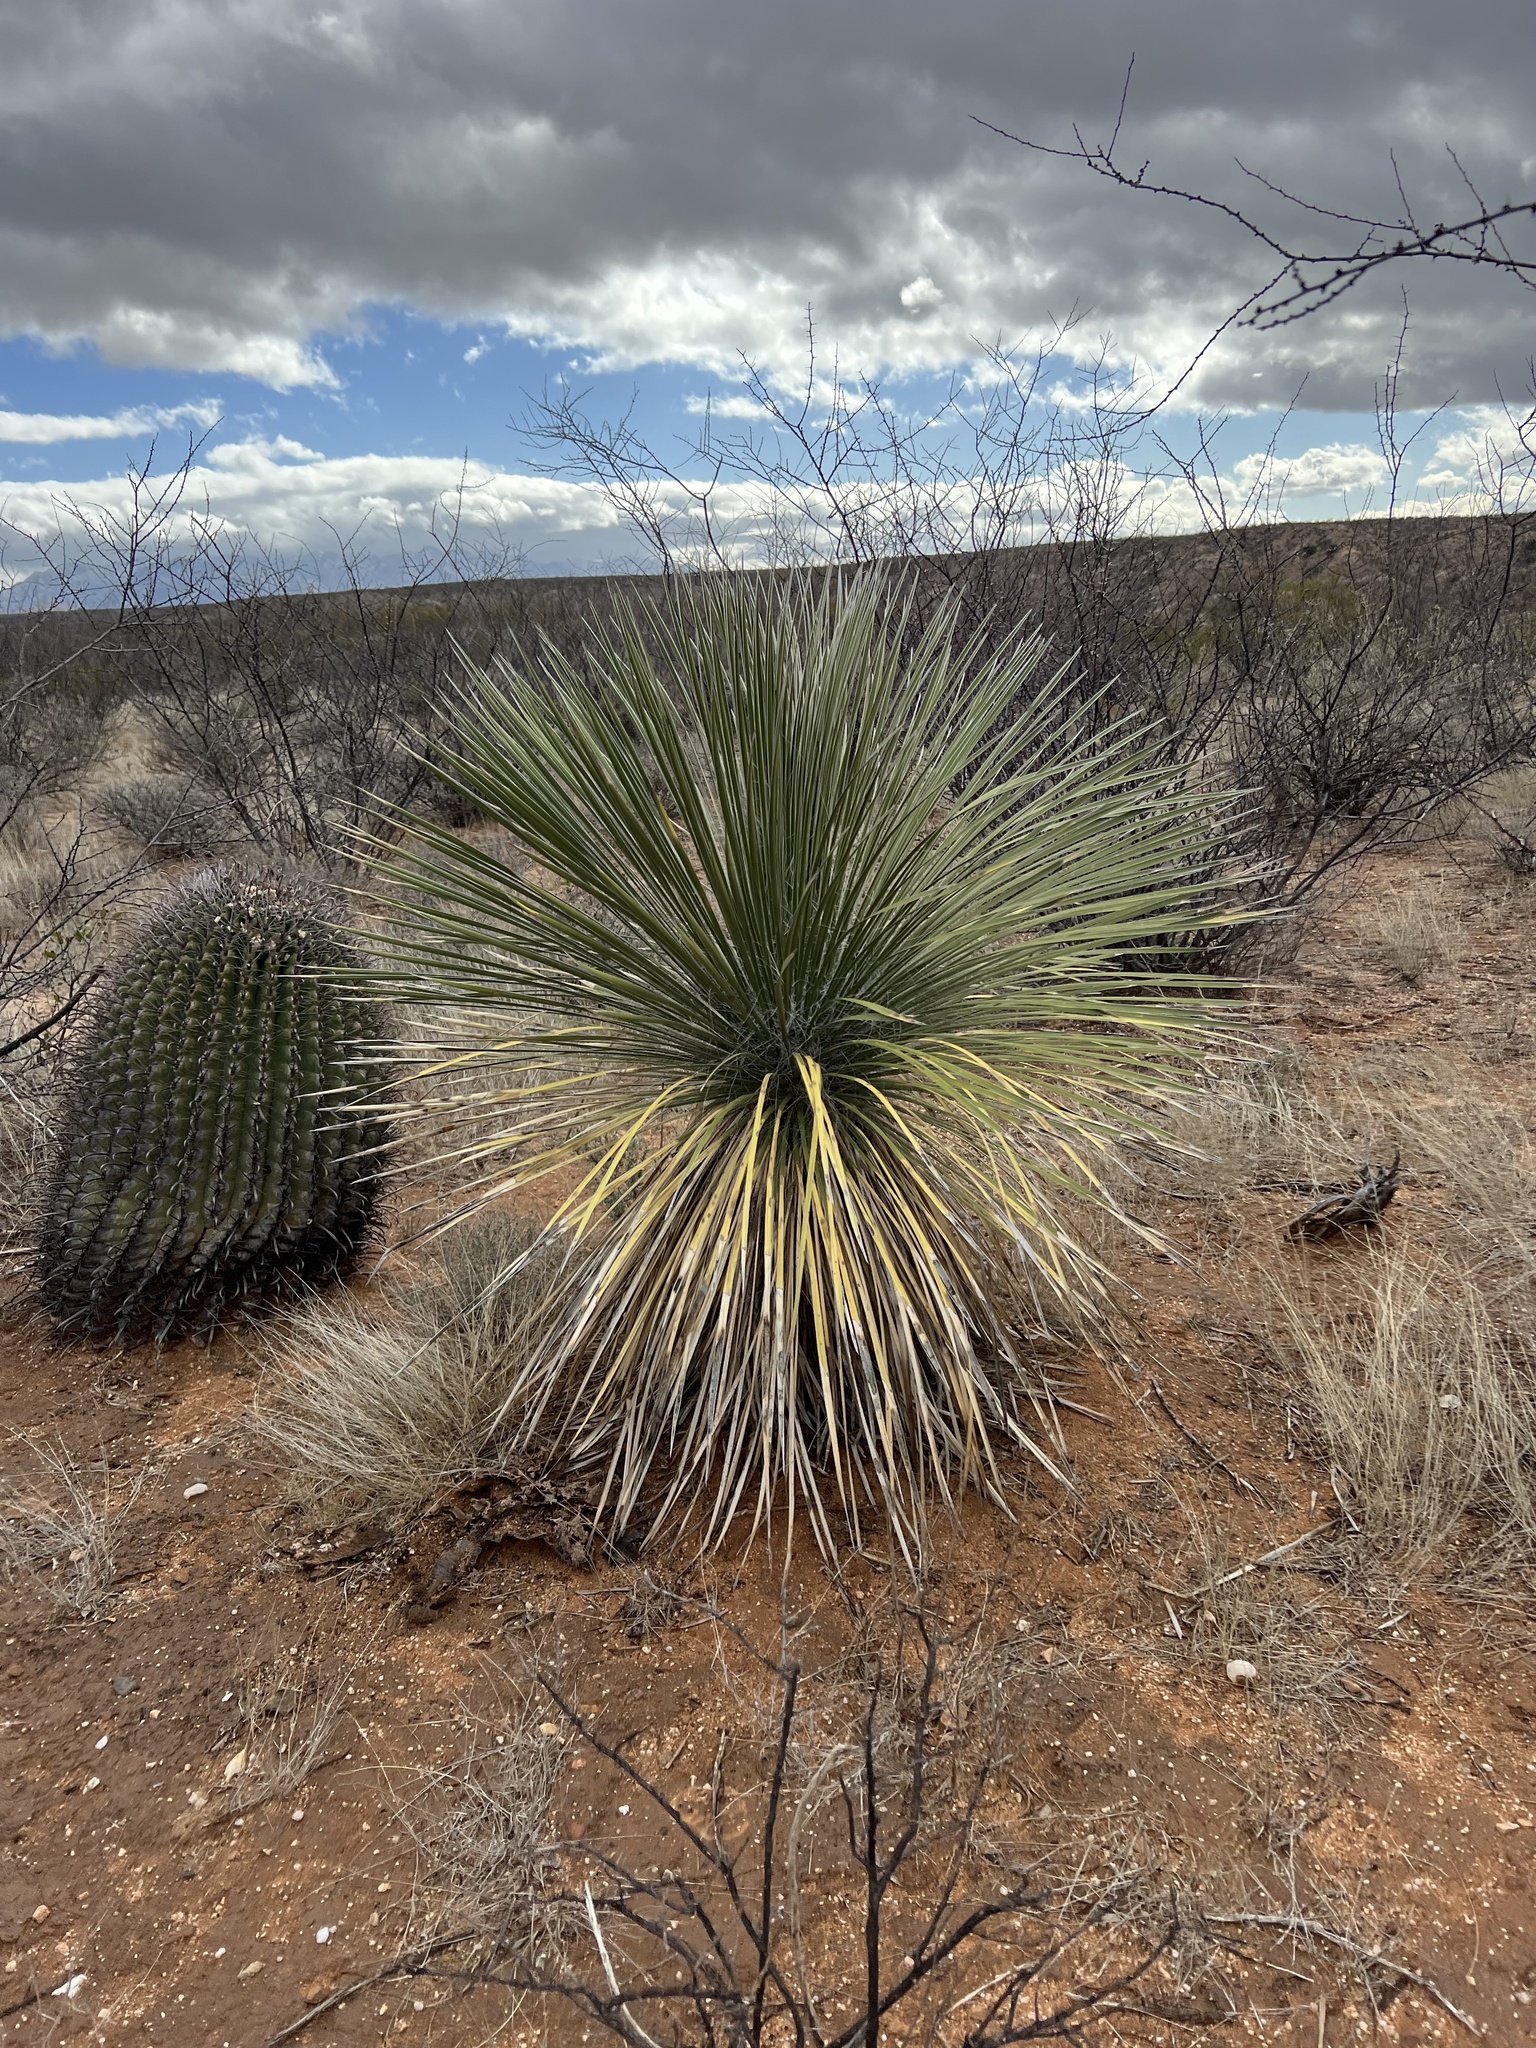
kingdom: Plantae
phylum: Tracheophyta
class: Liliopsida
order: Asparagales
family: Asparagaceae
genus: Yucca
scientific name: Yucca elata
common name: Palmella
